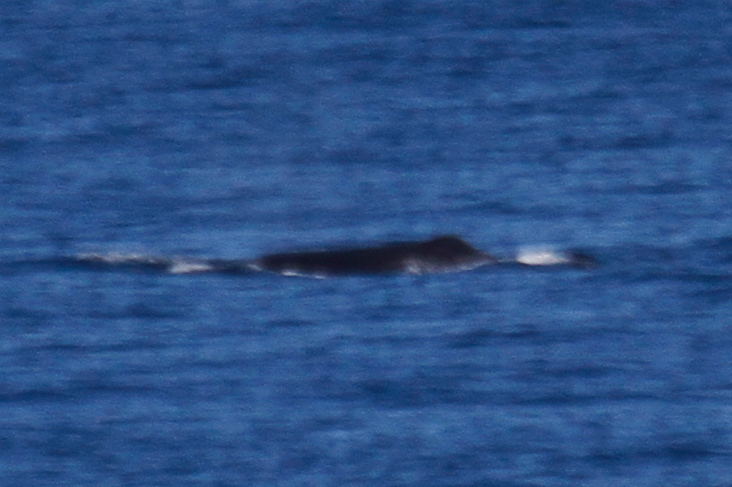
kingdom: Animalia
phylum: Chordata
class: Mammalia
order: Cetacea
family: Physeteridae
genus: Physeter
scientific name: Physeter macrocephalus
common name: Sperm whale
